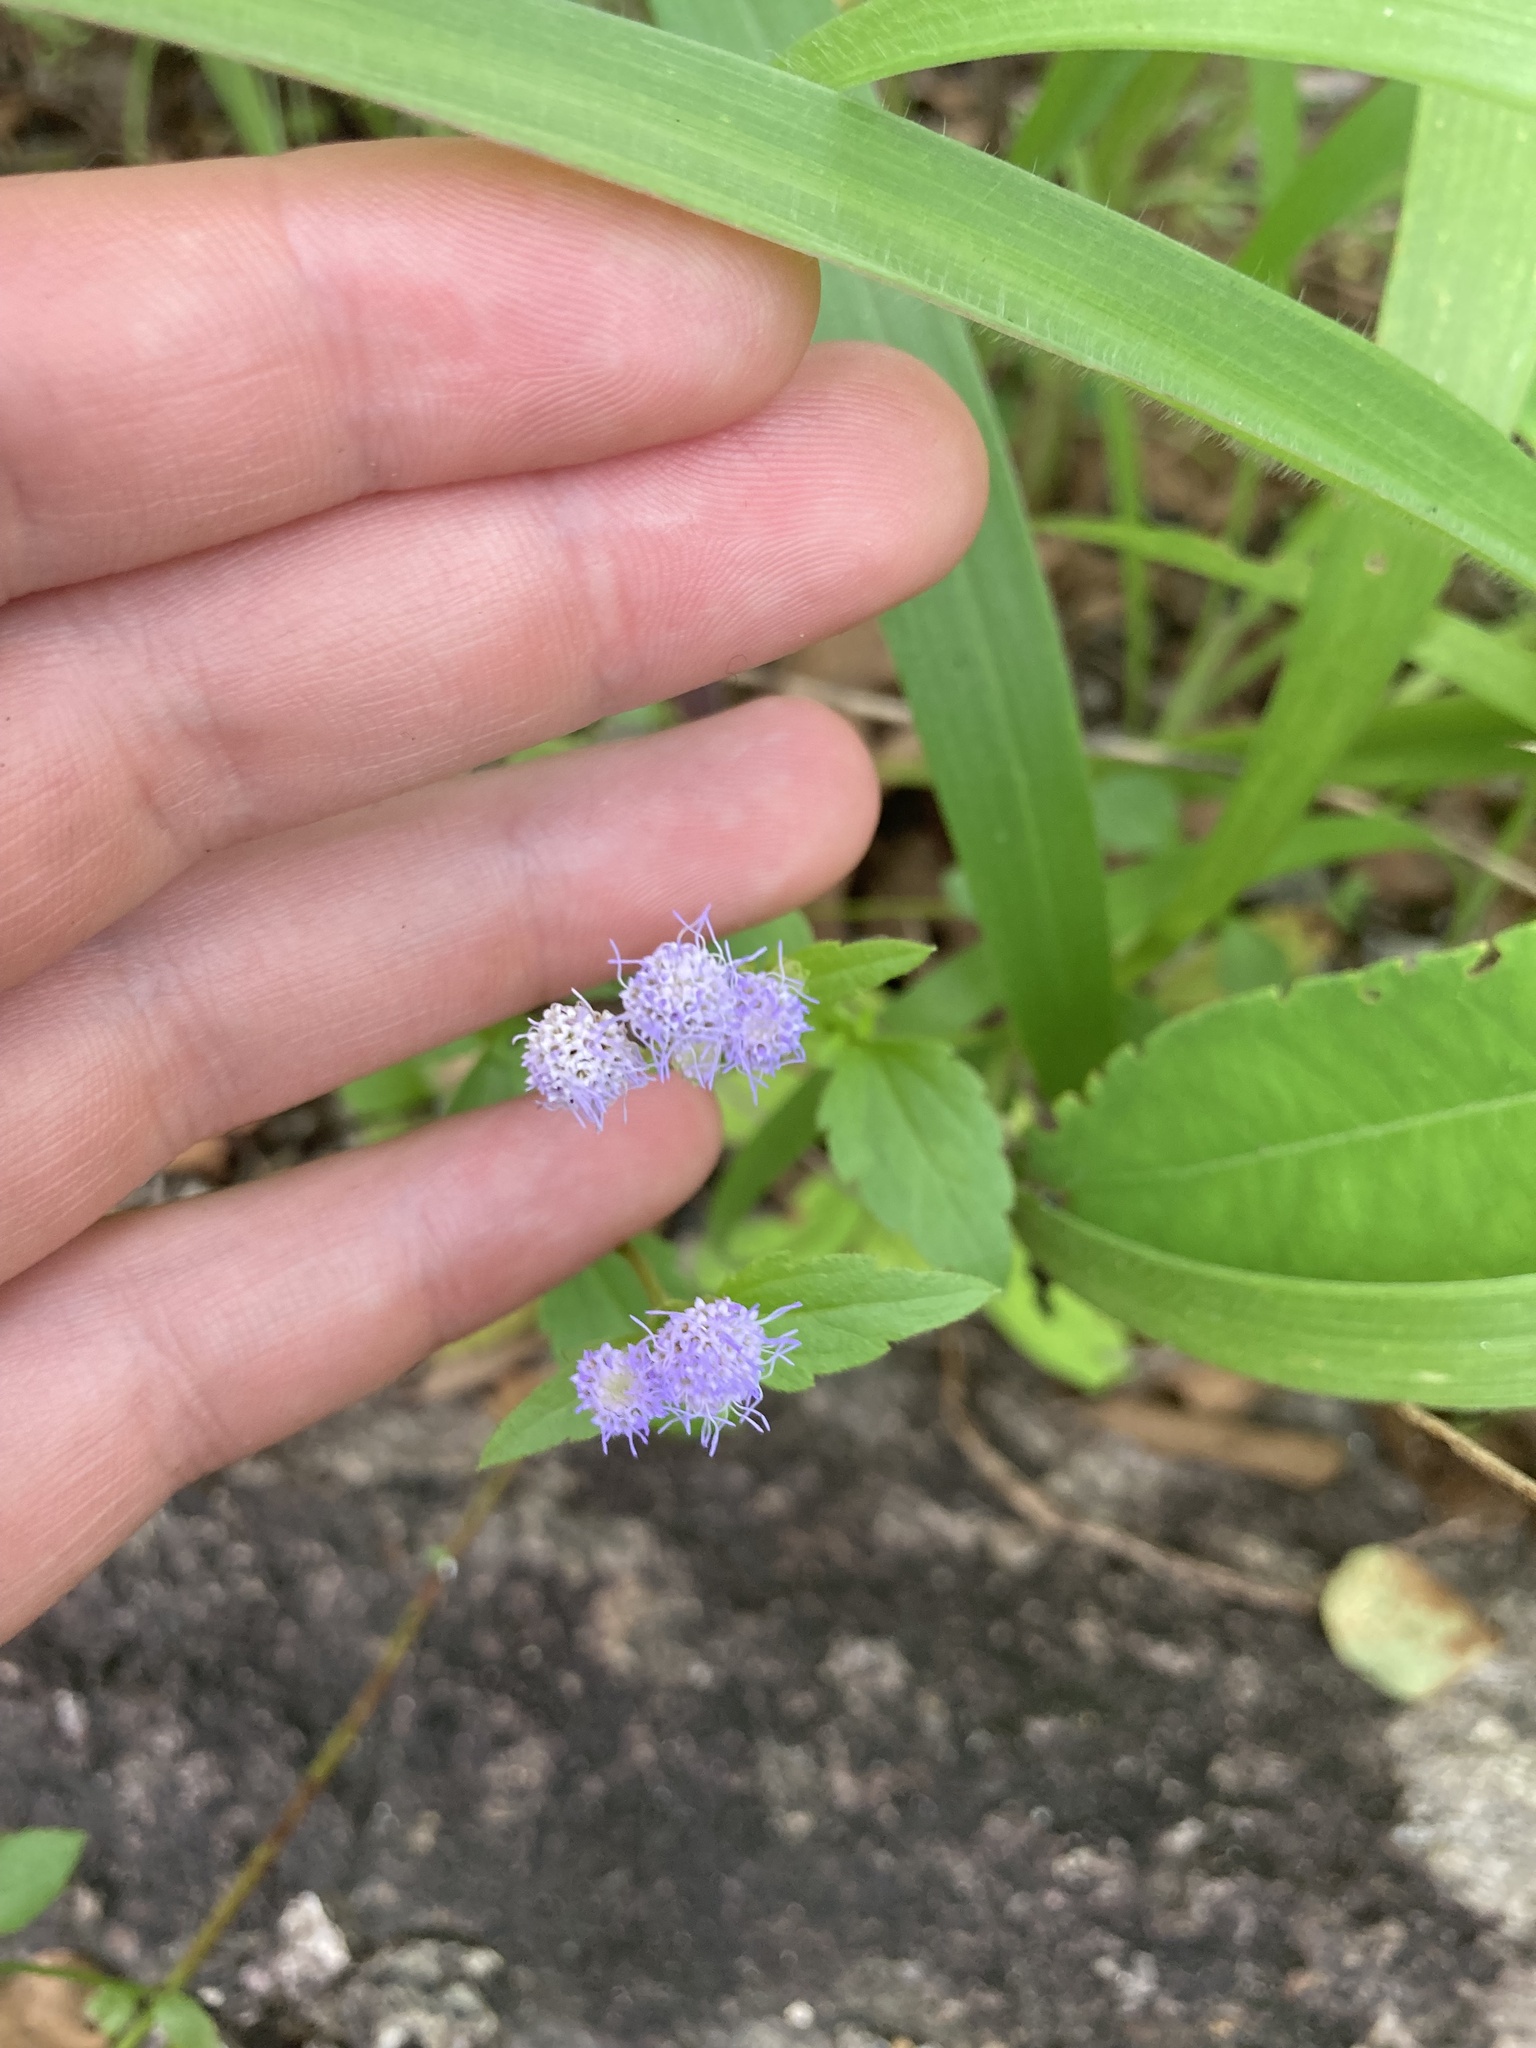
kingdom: Plantae
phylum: Tracheophyta
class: Magnoliopsida
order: Asterales
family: Asteraceae
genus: Praxelis
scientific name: Praxelis clematidea
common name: Praxelis
